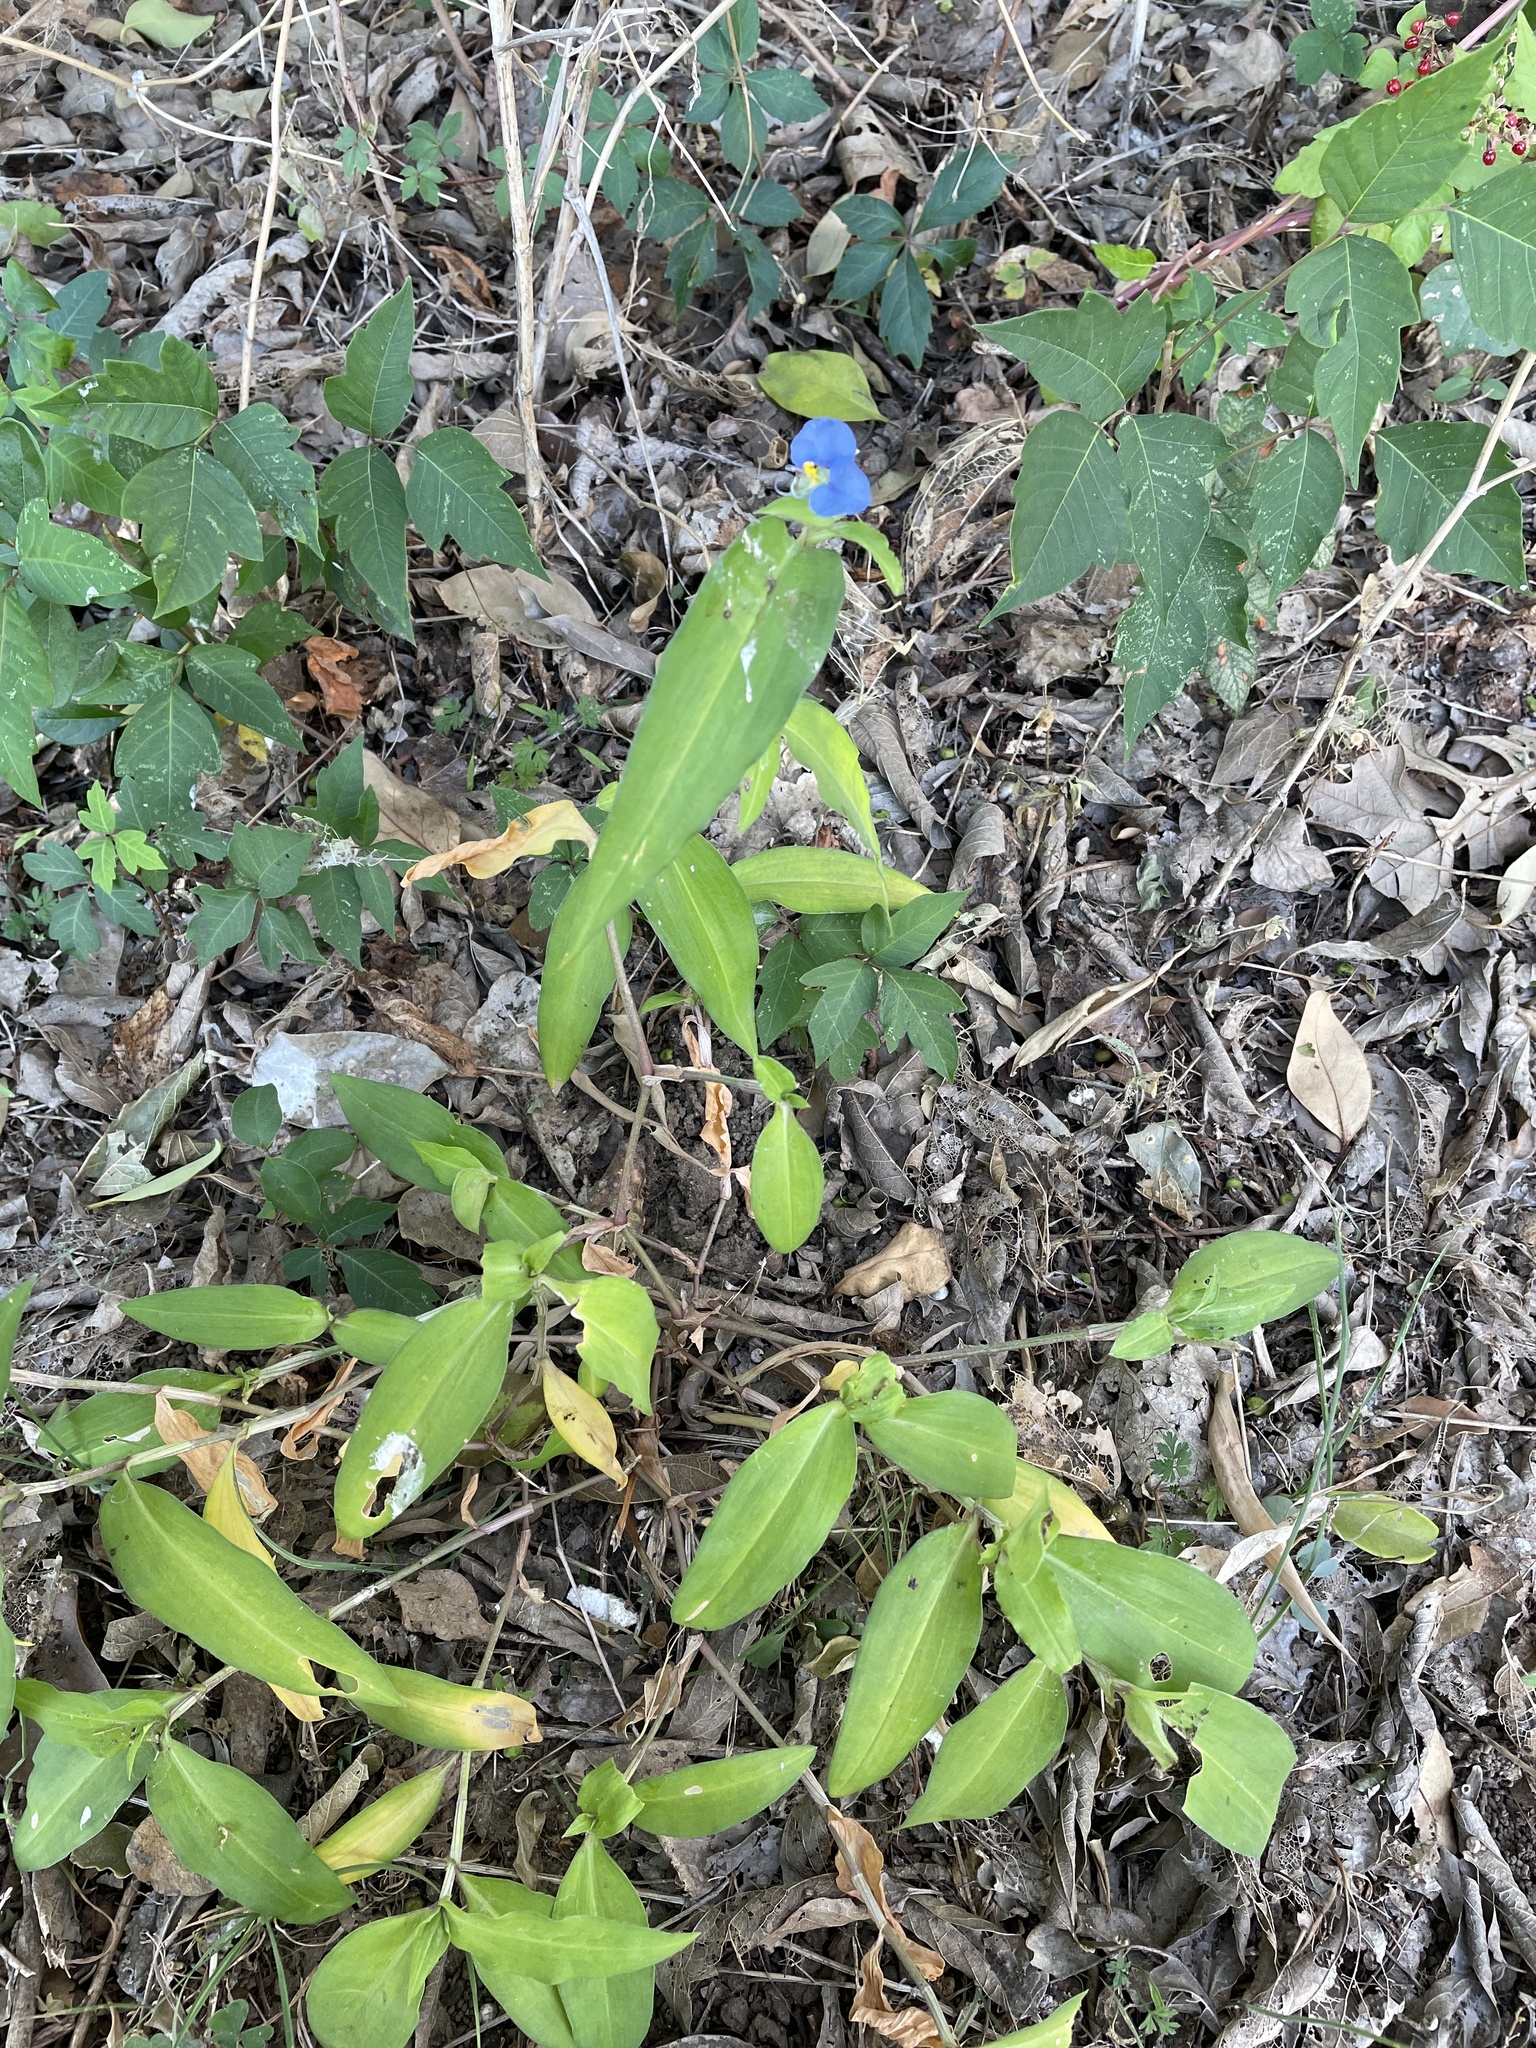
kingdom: Plantae
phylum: Tracheophyta
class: Liliopsida
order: Commelinales
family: Commelinaceae
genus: Commelina
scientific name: Commelina erecta
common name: Blousel blommetjie
